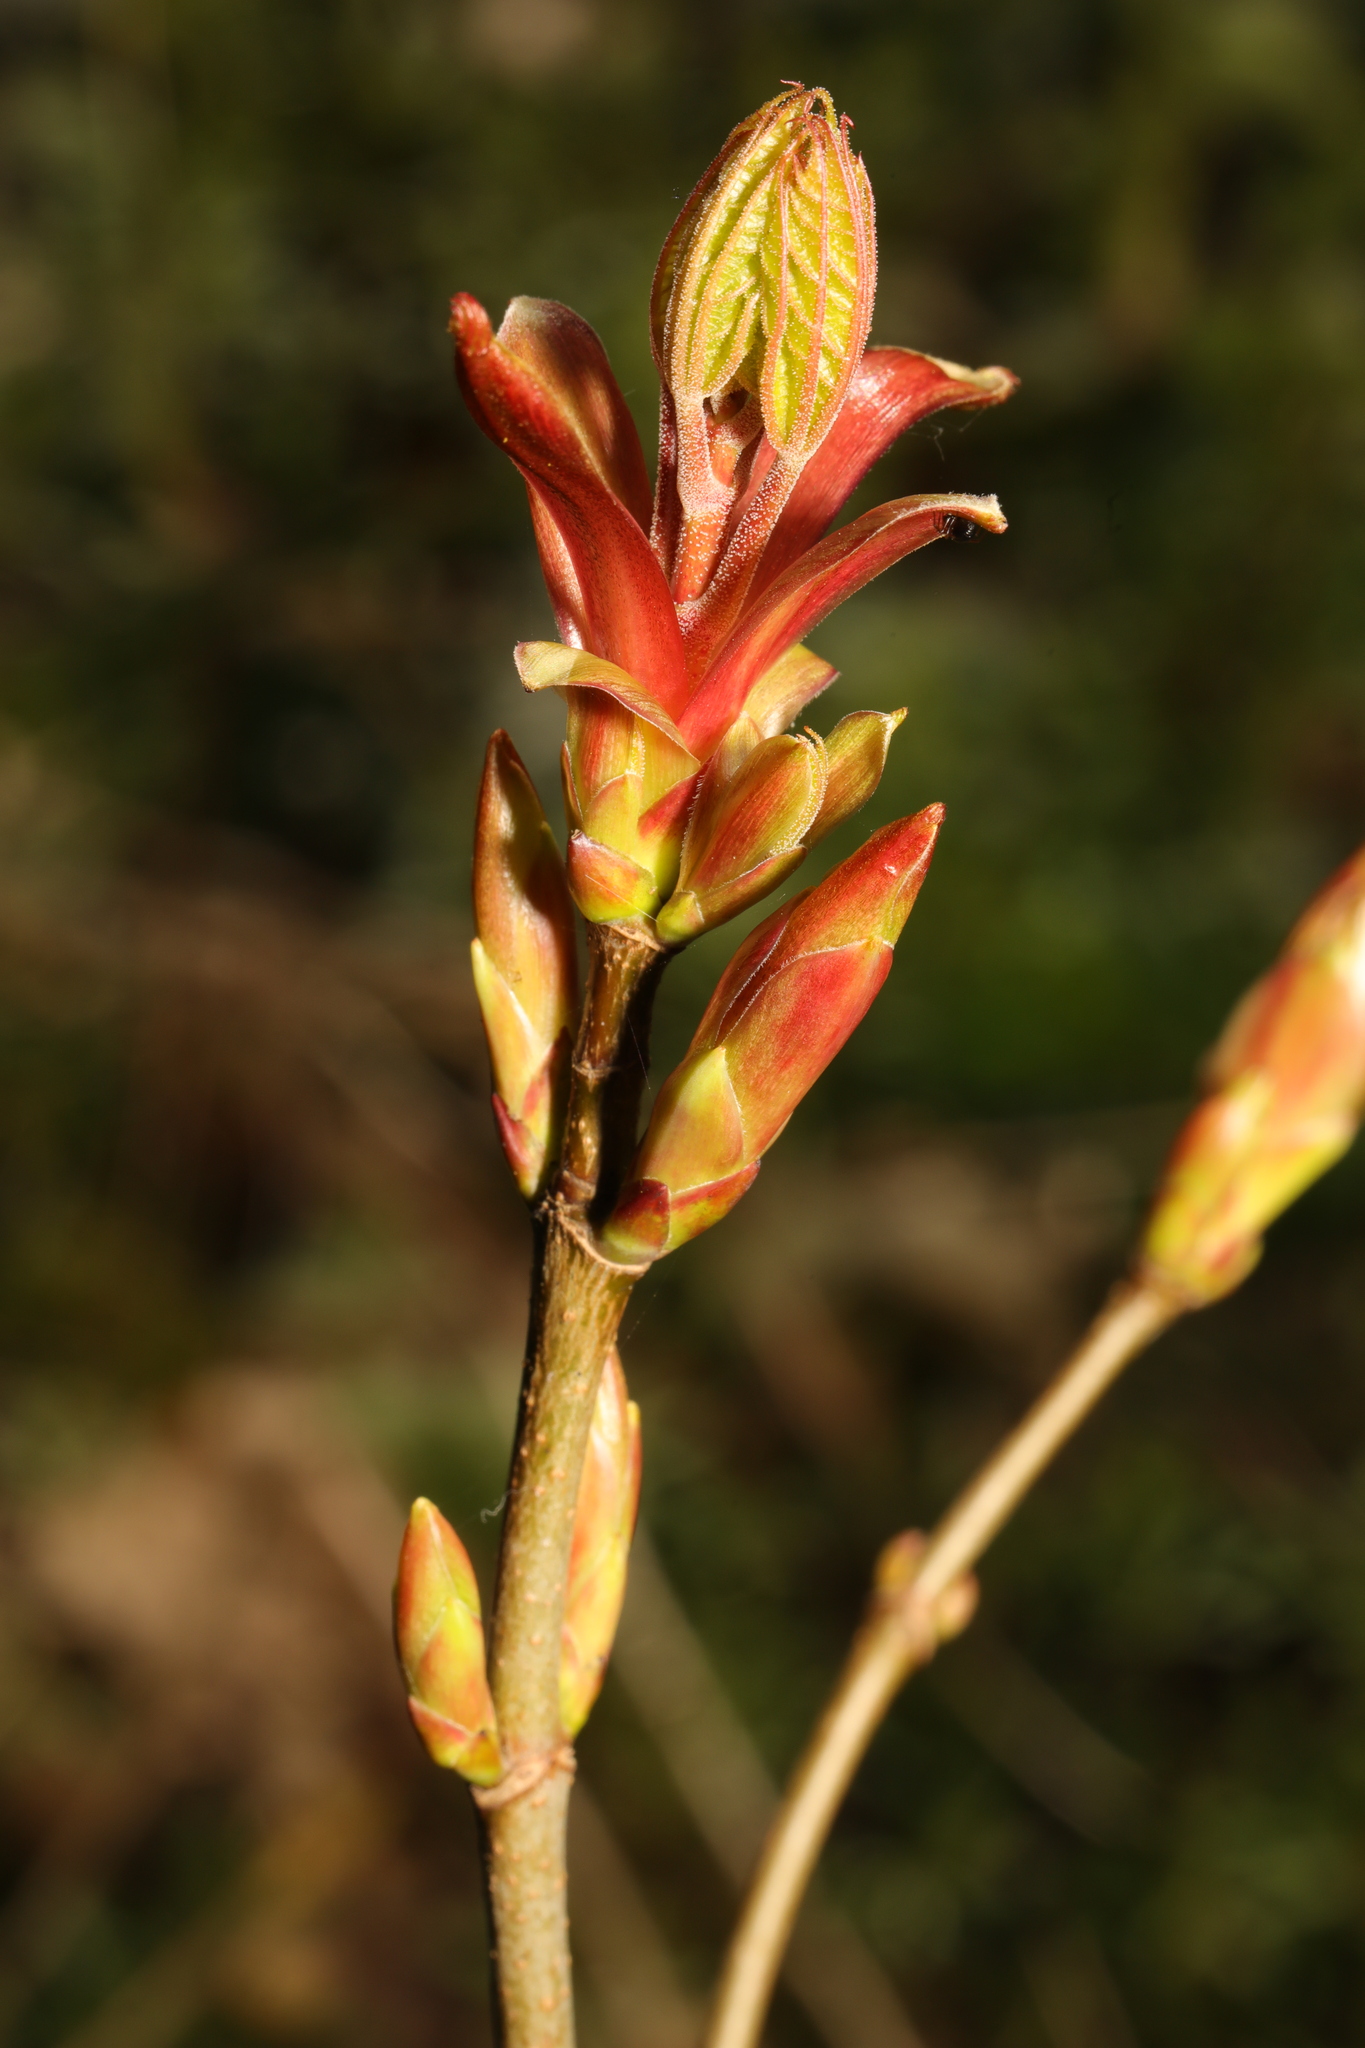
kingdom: Plantae
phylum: Tracheophyta
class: Magnoliopsida
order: Sapindales
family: Sapindaceae
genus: Acer
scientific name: Acer platanoides
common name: Norway maple
